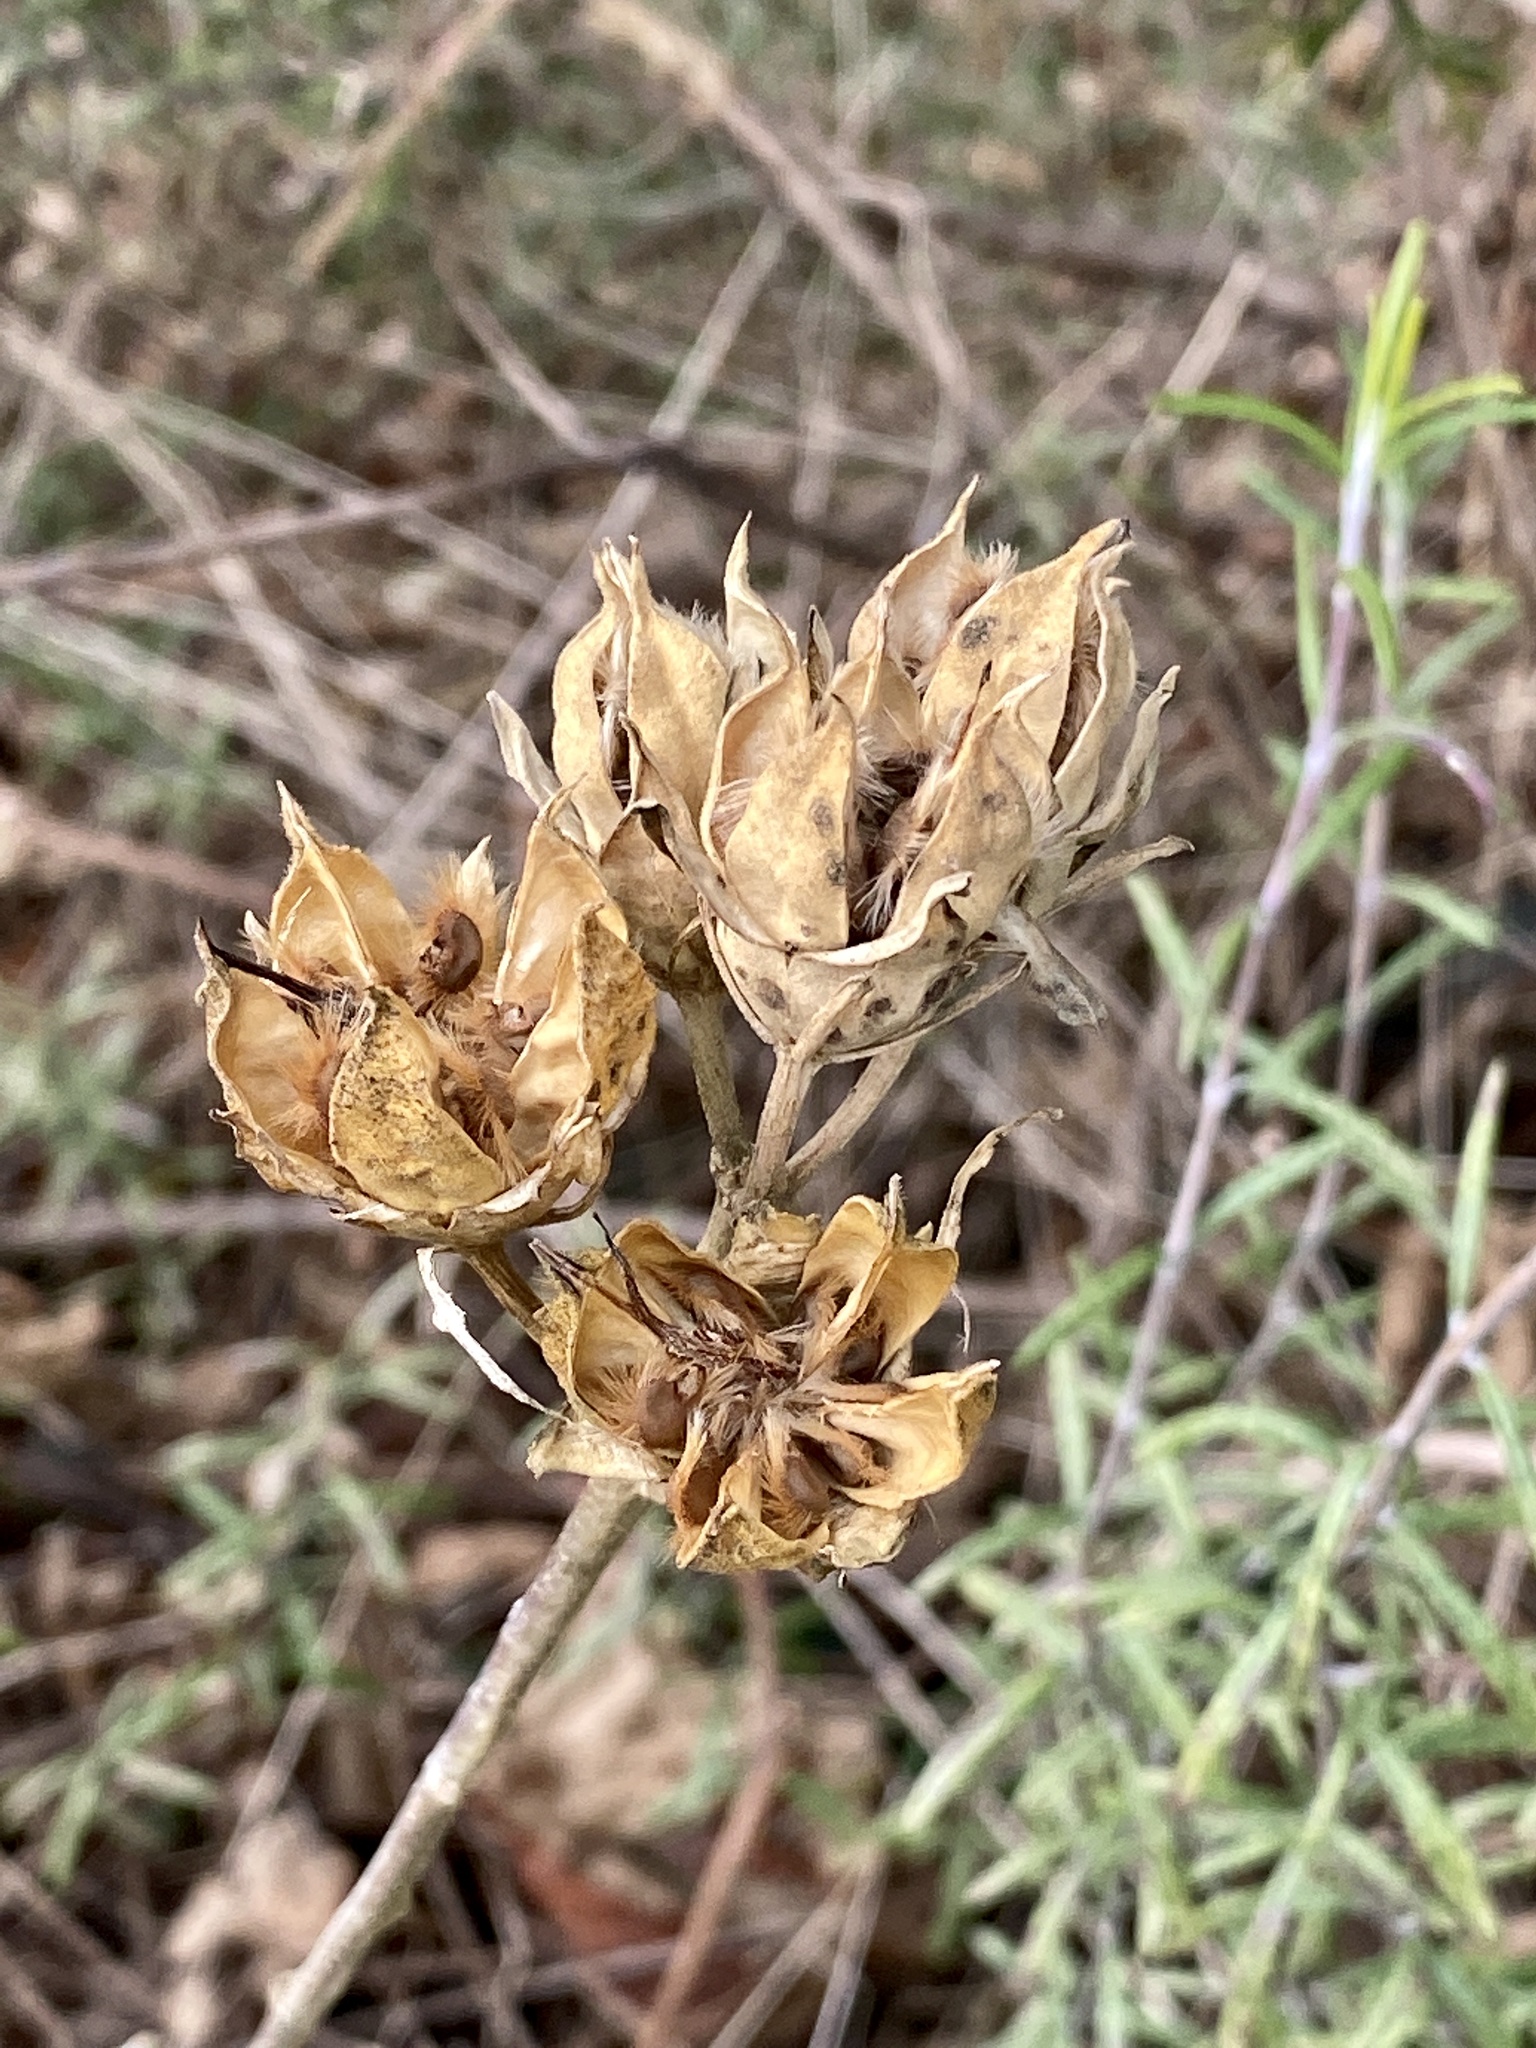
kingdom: Plantae
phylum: Tracheophyta
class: Magnoliopsida
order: Malvales
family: Malvaceae
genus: Hibiscus
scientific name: Hibiscus syriacus
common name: Syrian ketmia
